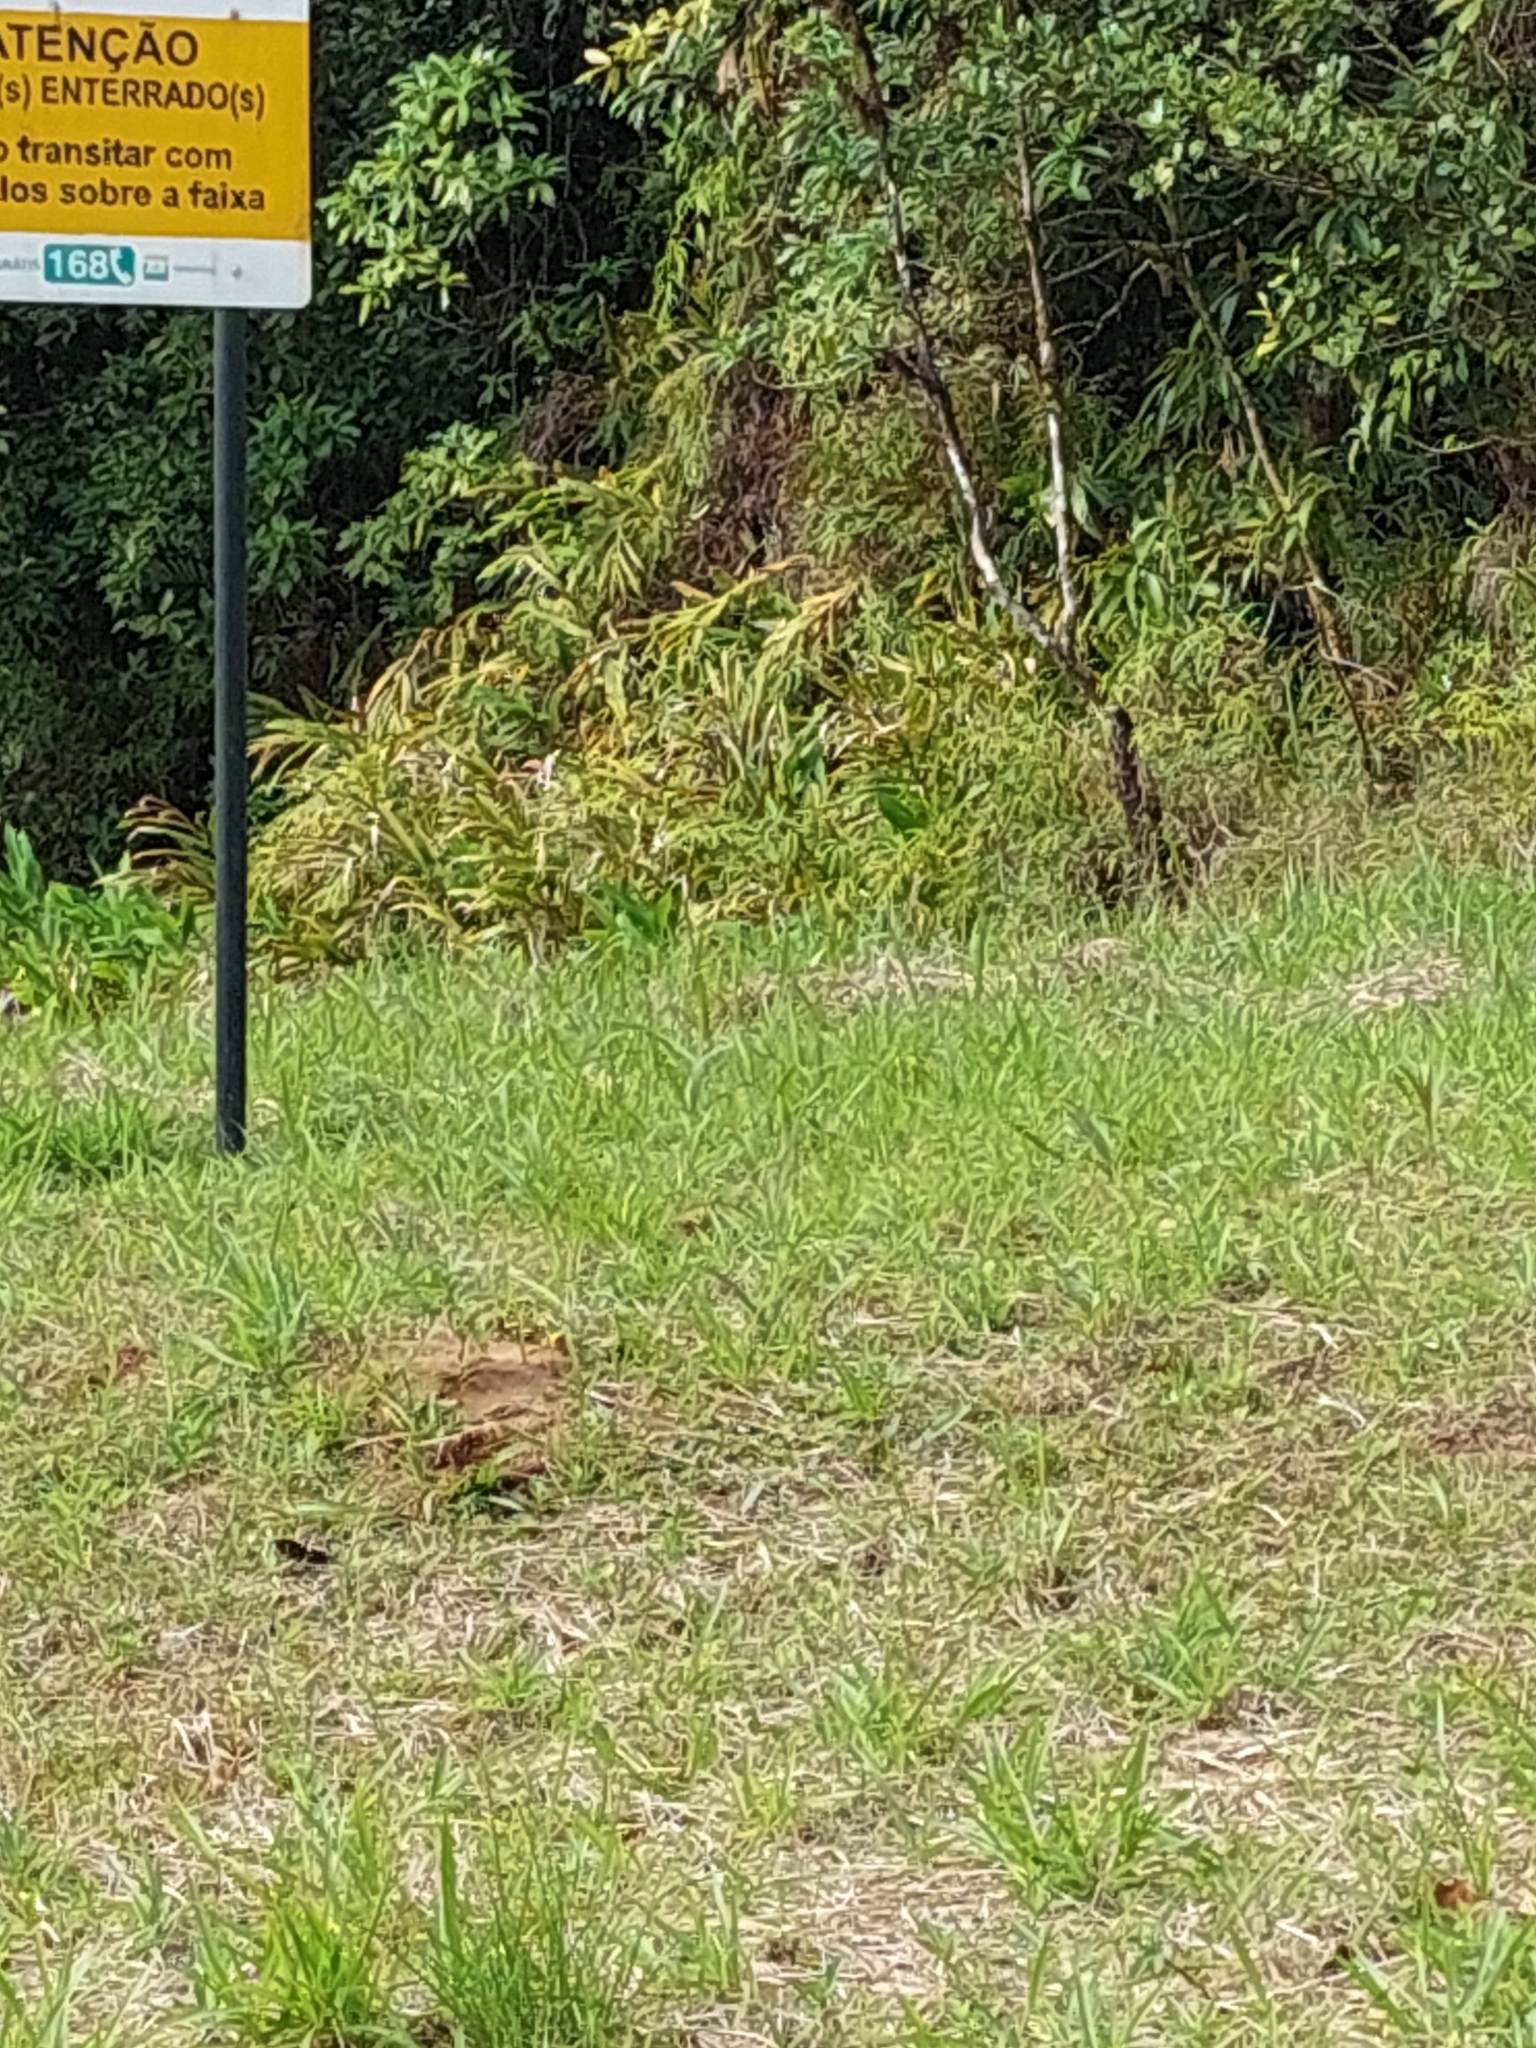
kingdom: Plantae
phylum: Tracheophyta
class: Liliopsida
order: Zingiberales
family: Zingiberaceae
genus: Hedychium
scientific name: Hedychium coronarium
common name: White garland-lily
